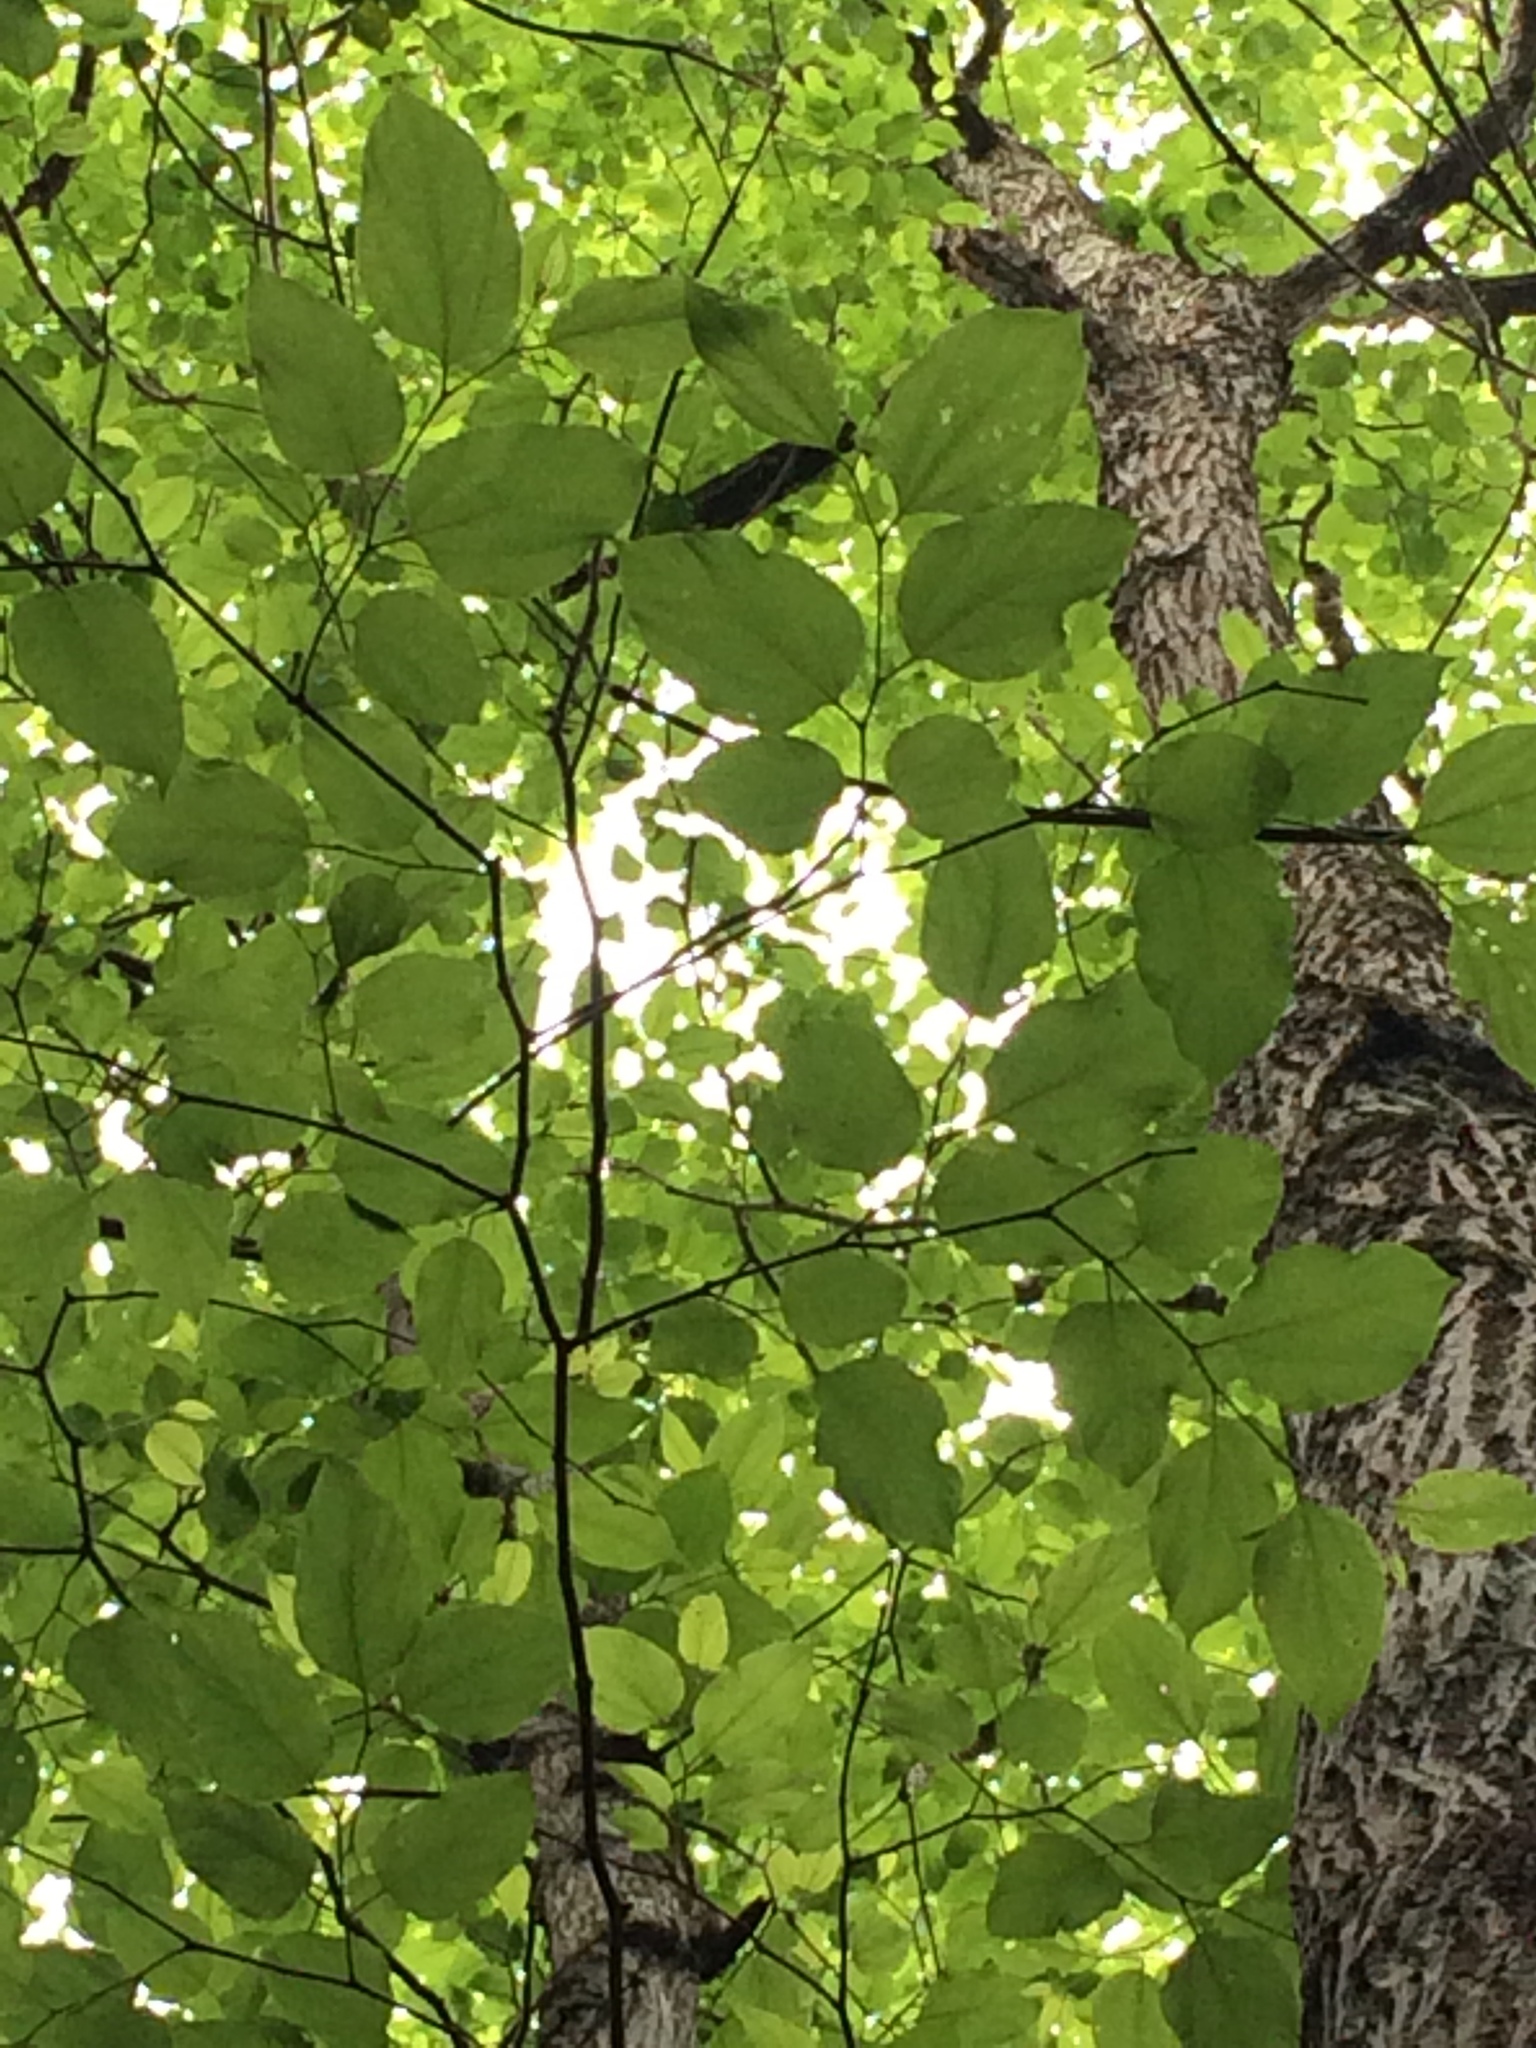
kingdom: Plantae
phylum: Tracheophyta
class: Magnoliopsida
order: Rosales
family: Rhamnaceae
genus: Hovenia
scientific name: Hovenia dulcis
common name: Japanese raisintree
